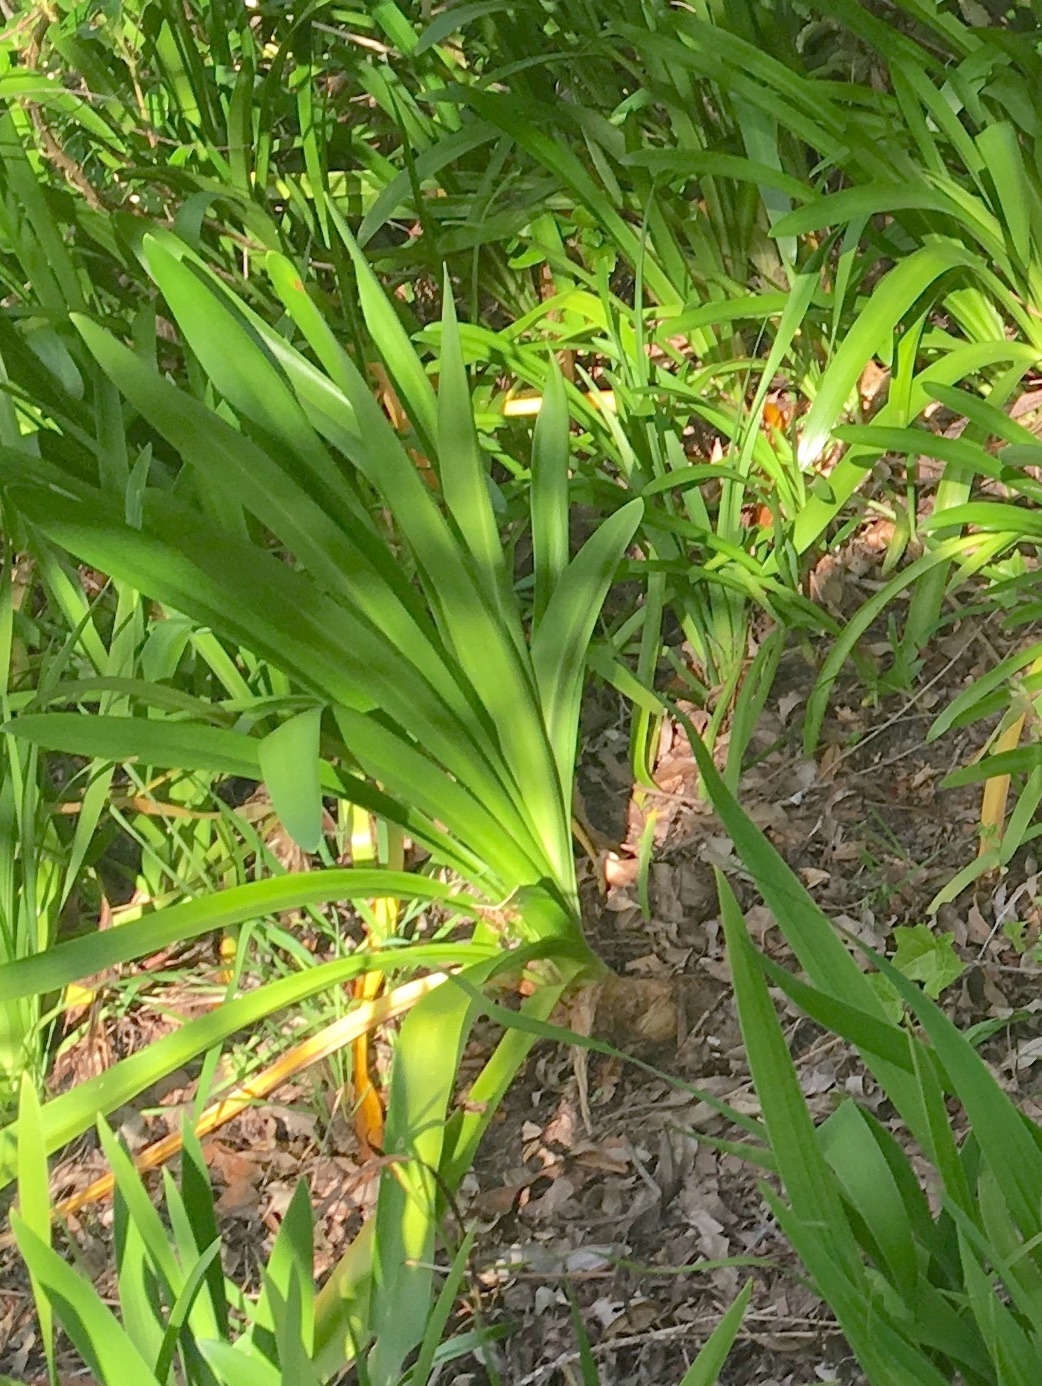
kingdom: Plantae
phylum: Tracheophyta
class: Liliopsida
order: Asparagales
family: Amaryllidaceae
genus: Agapanthus
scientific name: Agapanthus praecox
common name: African-lily
